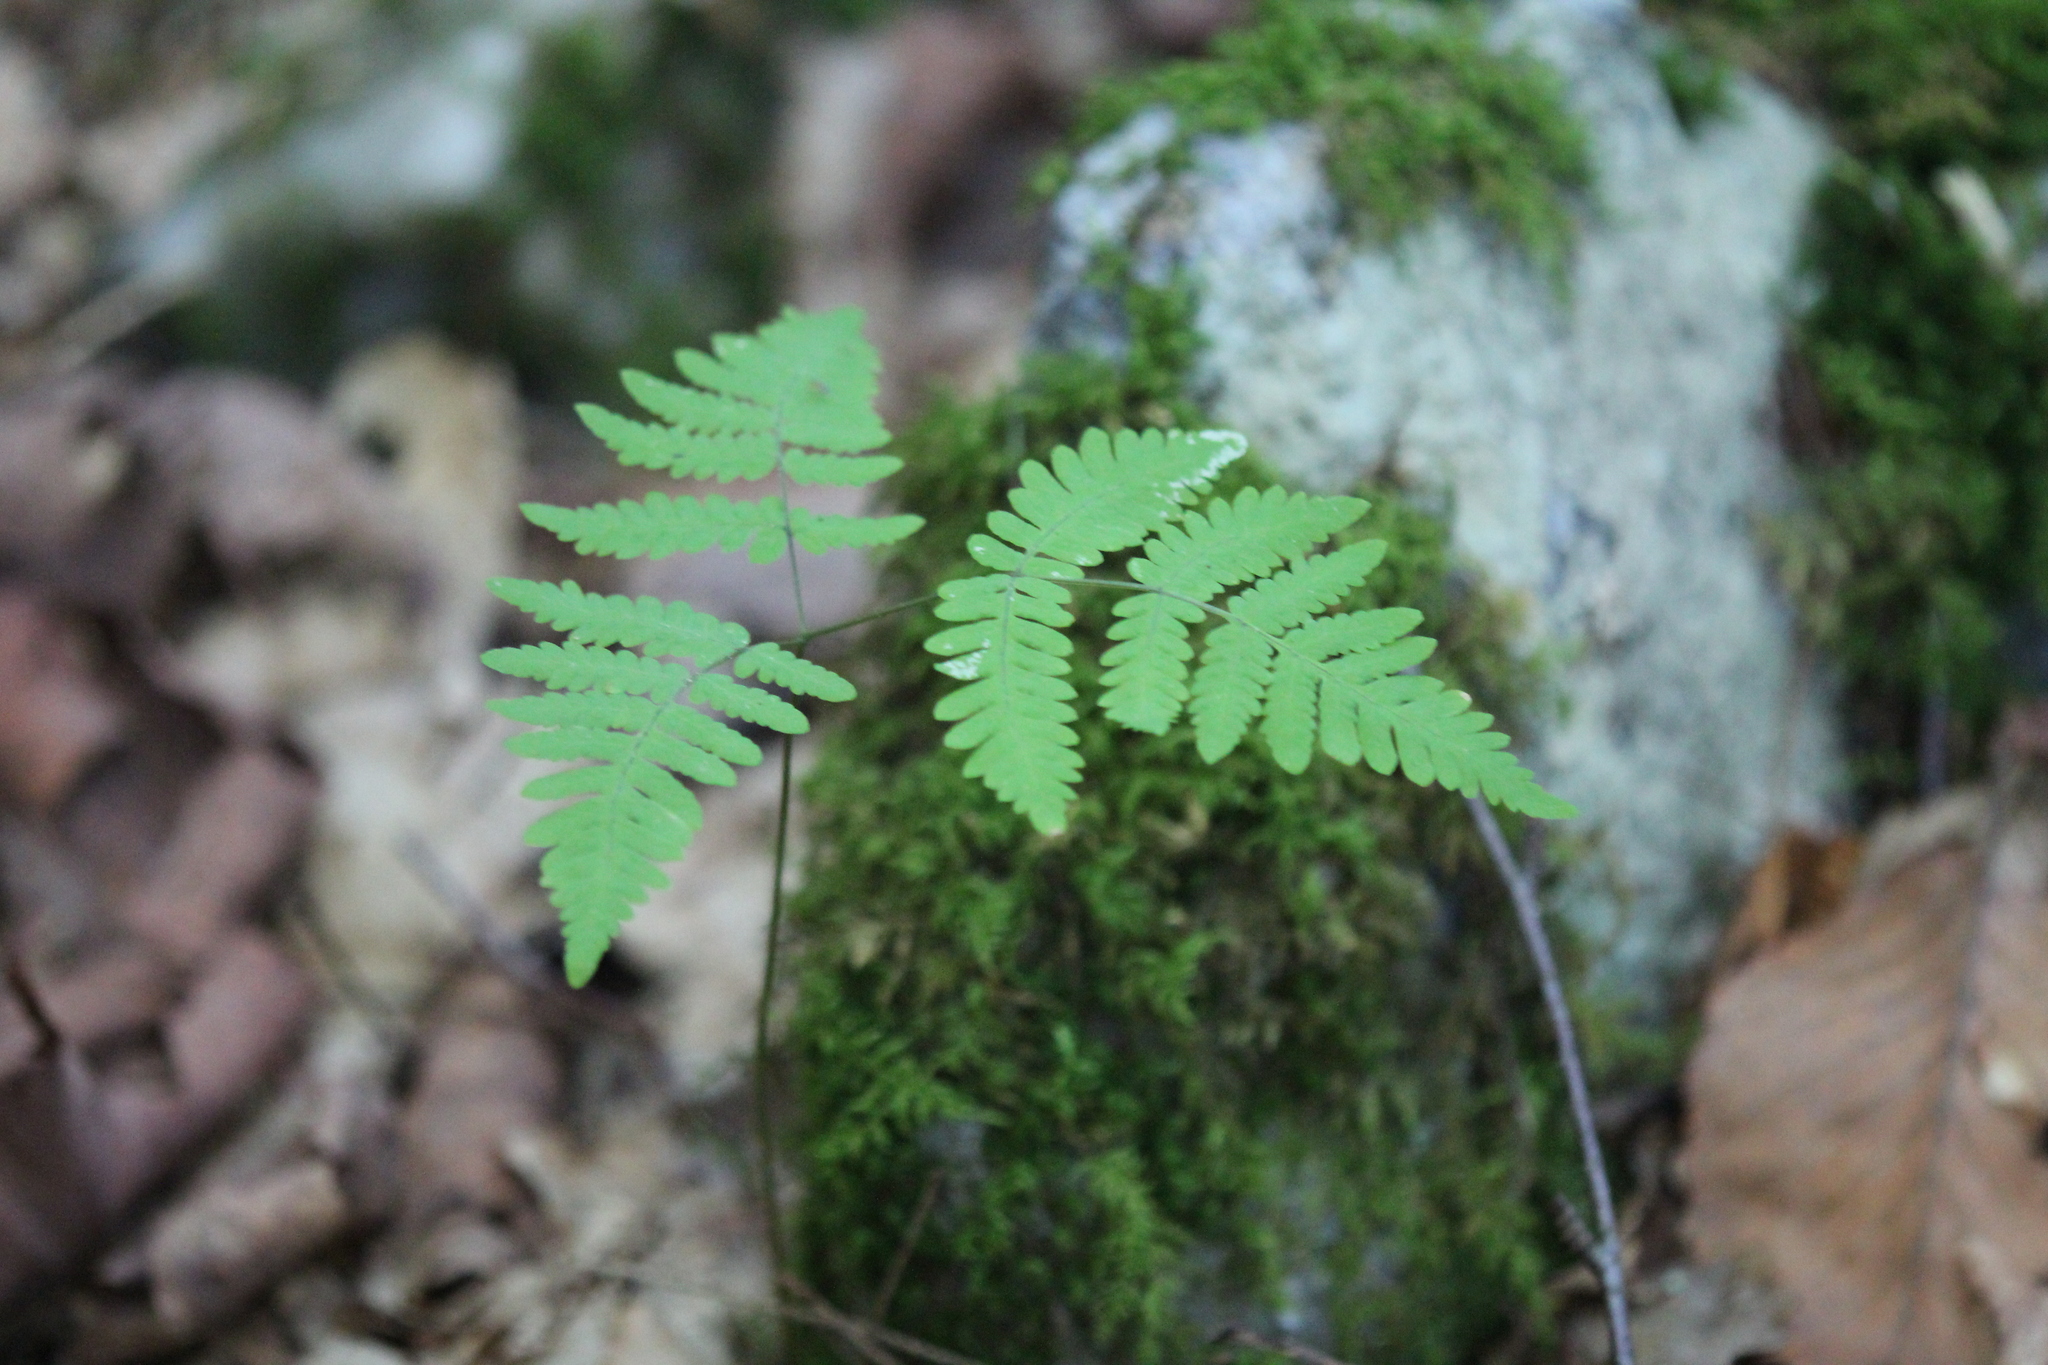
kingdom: Plantae
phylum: Tracheophyta
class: Polypodiopsida
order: Polypodiales
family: Cystopteridaceae
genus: Gymnocarpium
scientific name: Gymnocarpium dryopteris
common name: Oak fern
